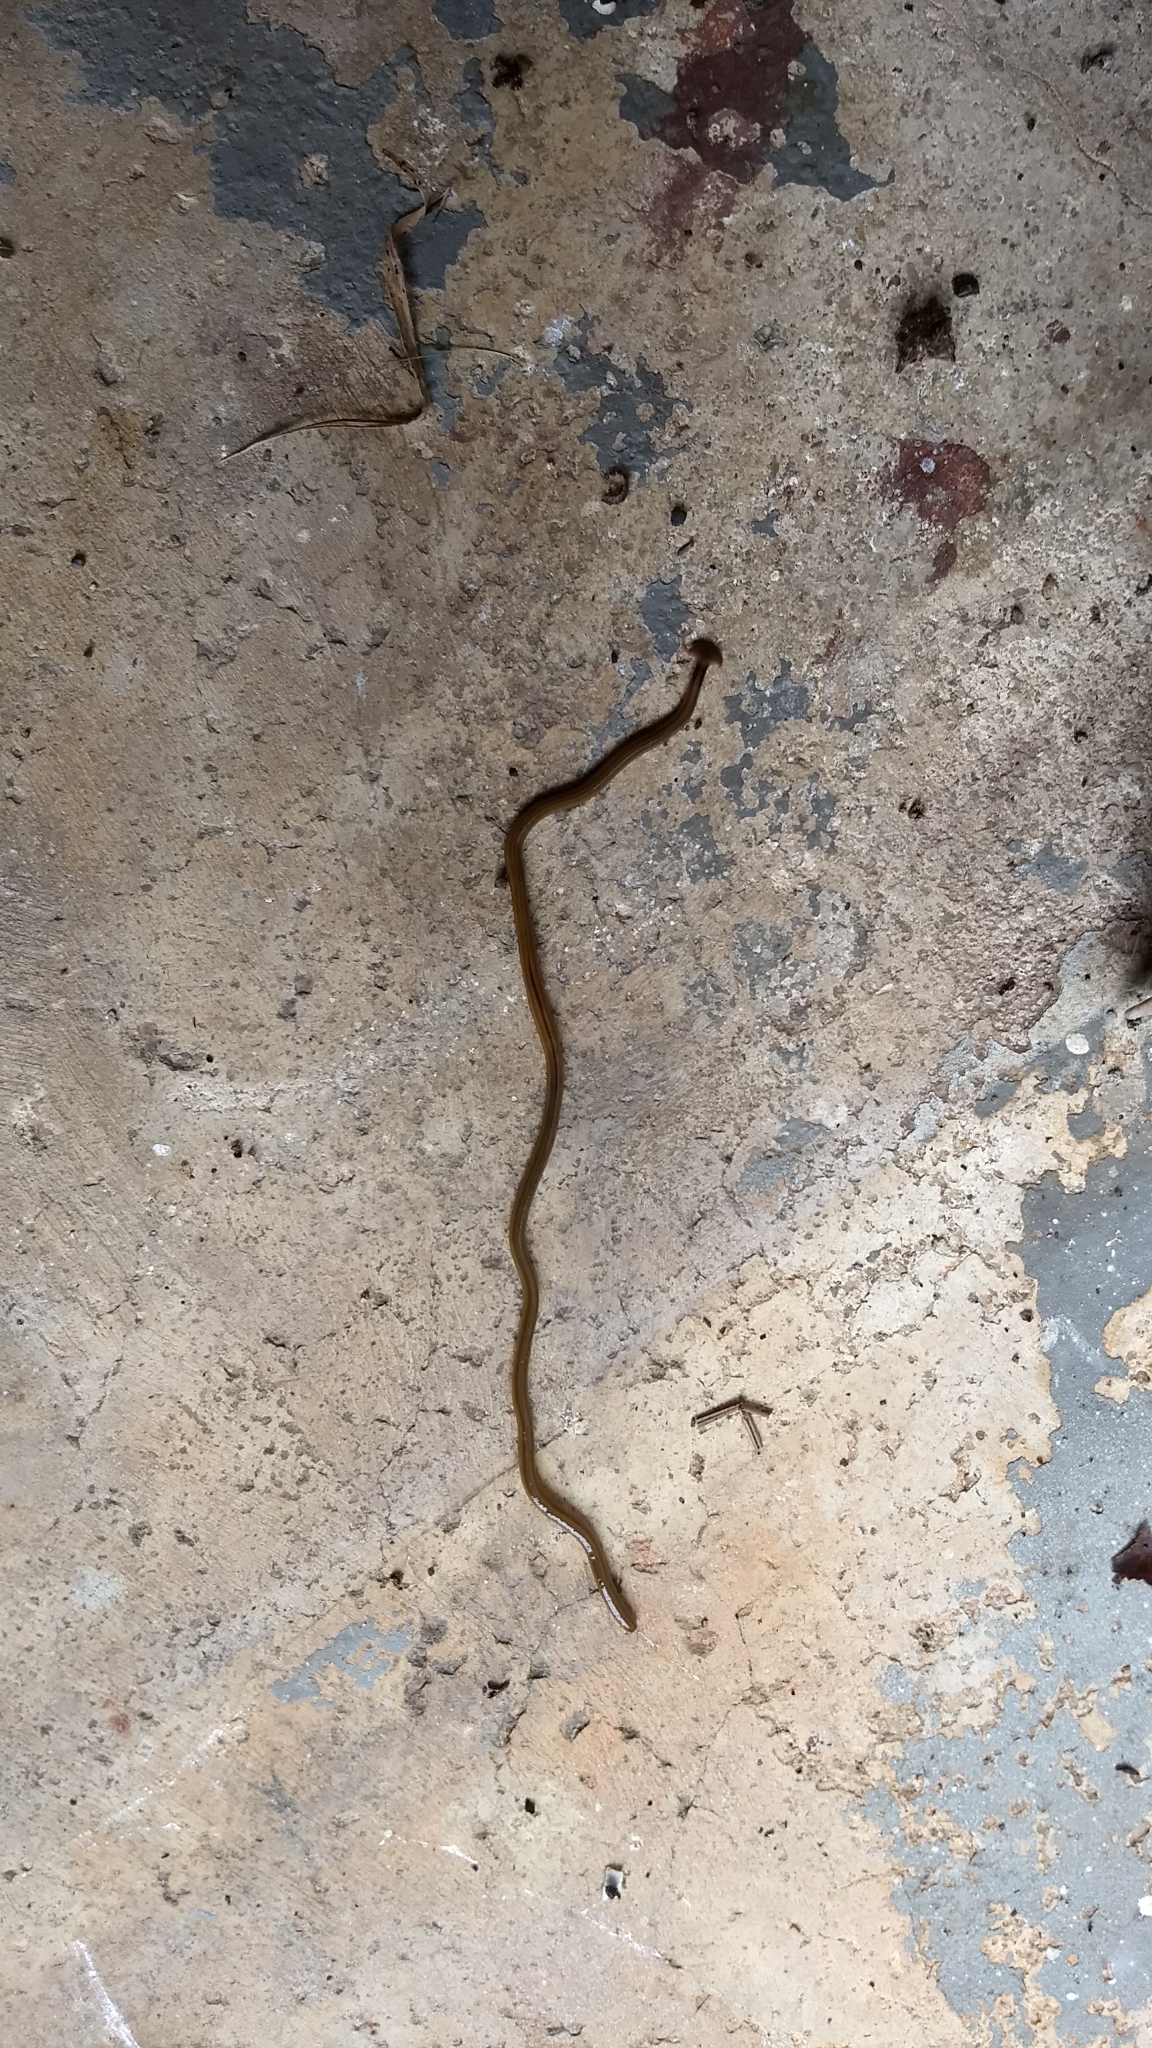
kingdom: Animalia
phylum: Platyhelminthes
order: Tricladida
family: Geoplanidae
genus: Bipalium
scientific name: Bipalium kewense
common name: Hammerhead flatworm
